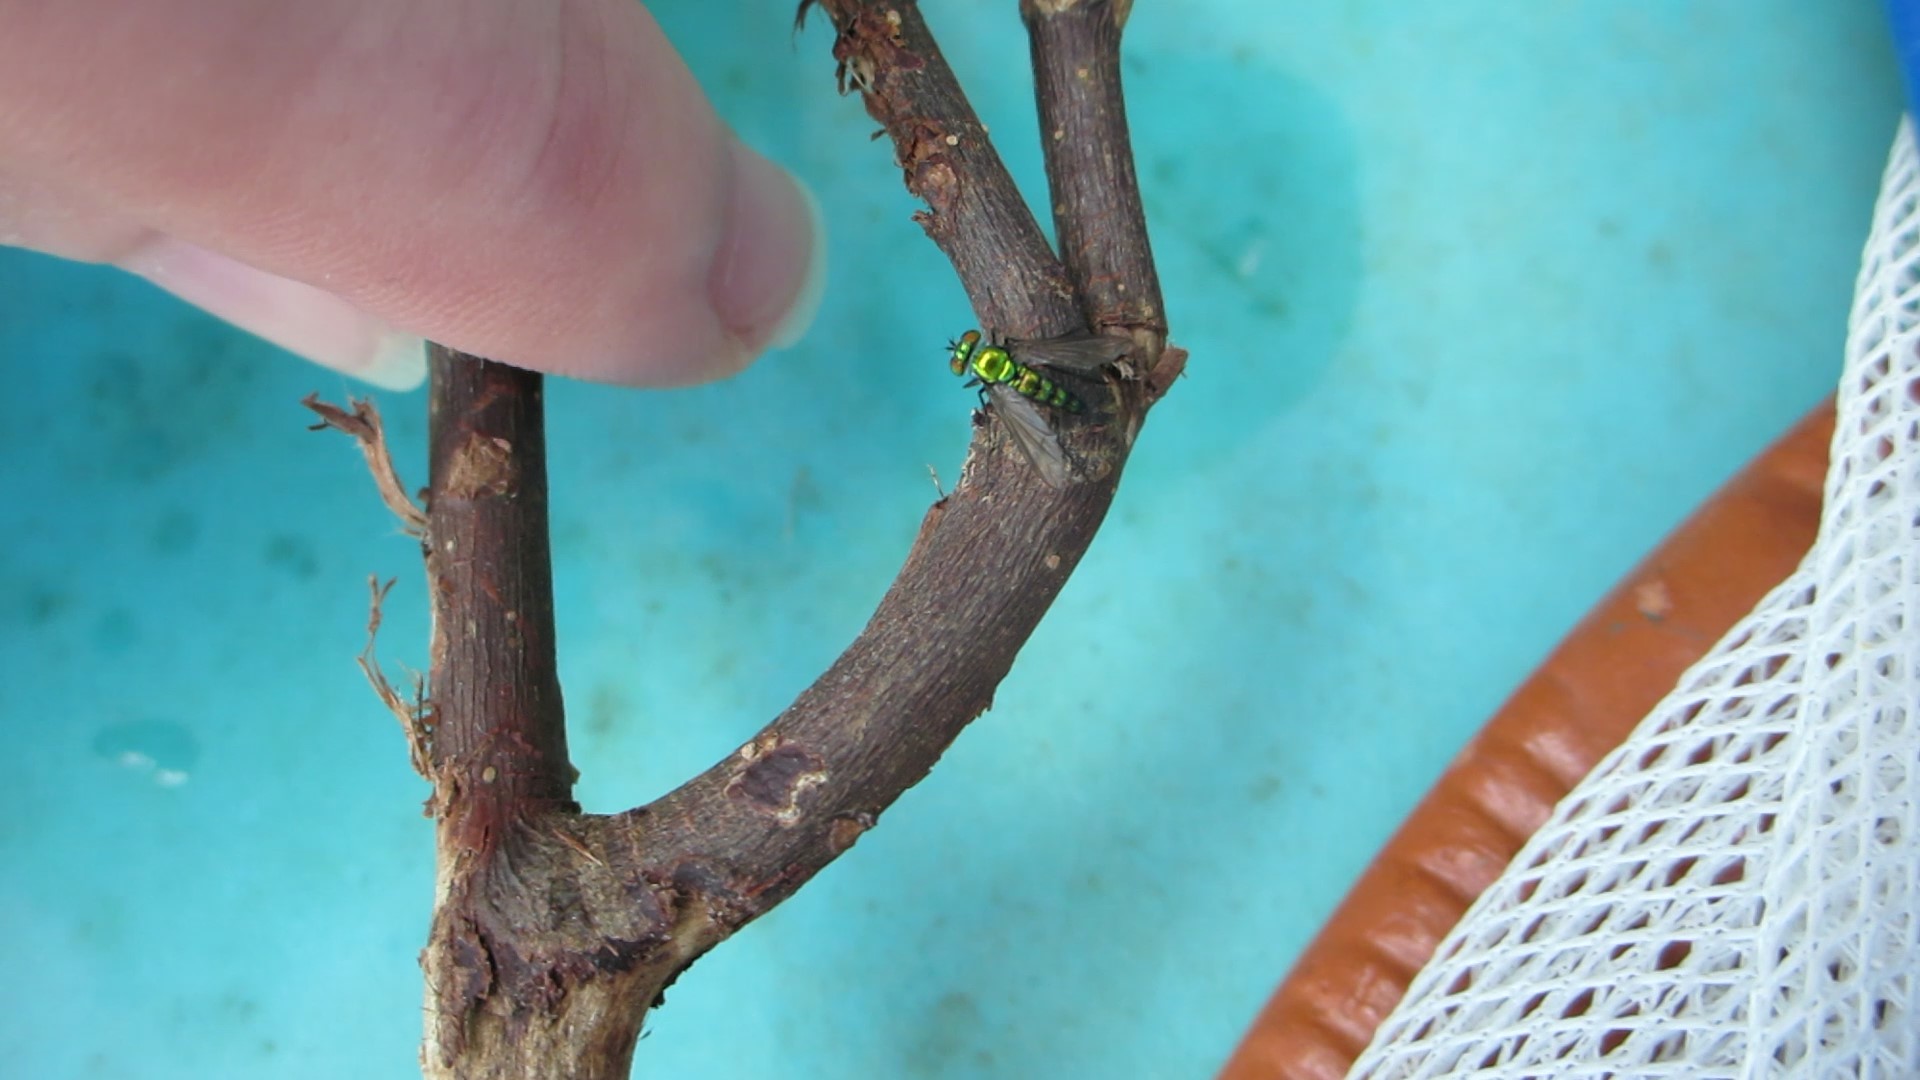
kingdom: Animalia
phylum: Arthropoda
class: Insecta
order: Diptera
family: Dolichopodidae
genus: Condylostylus
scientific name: Condylostylus longicornis
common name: Long-legged fly
